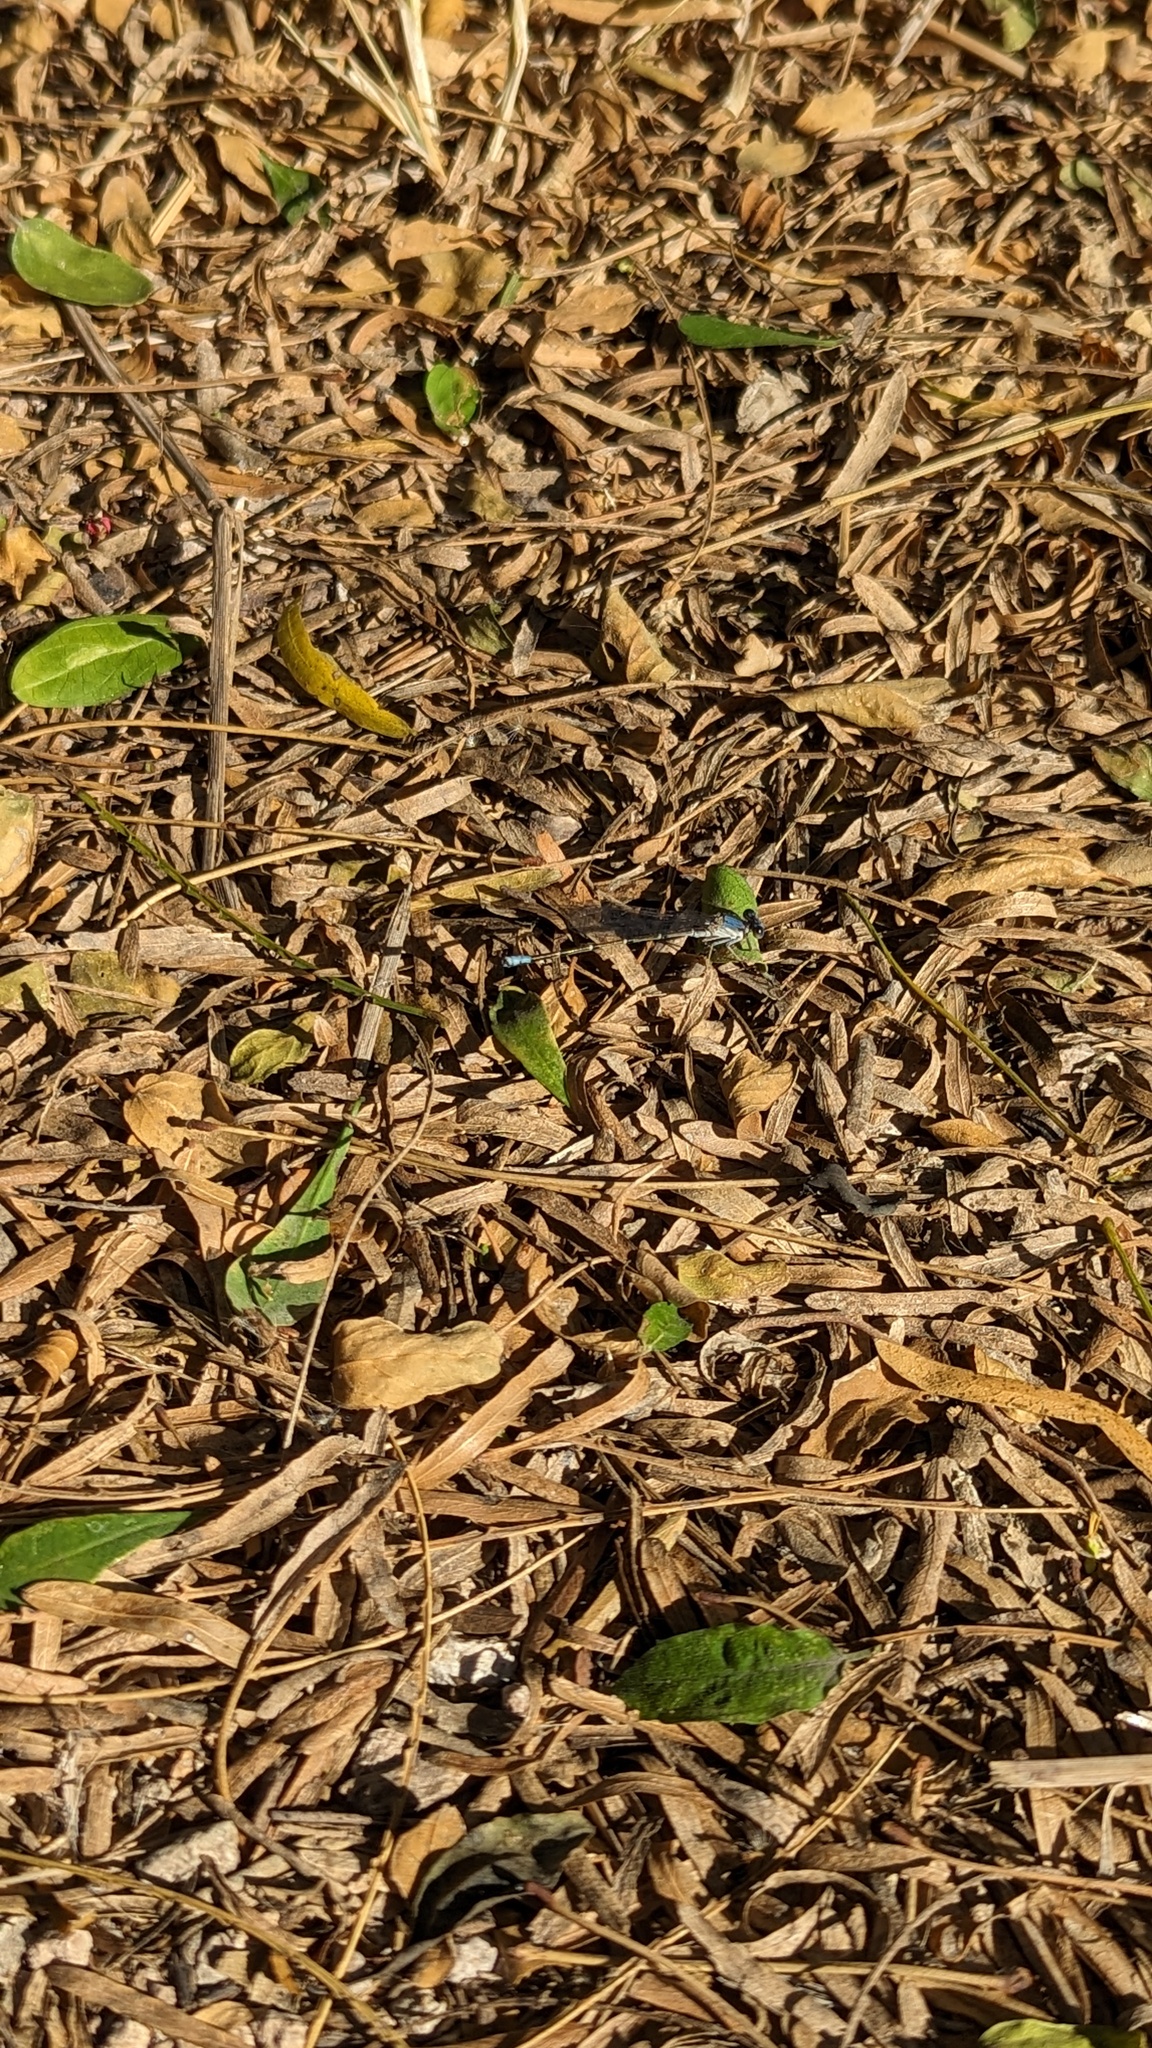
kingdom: Animalia
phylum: Arthropoda
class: Insecta
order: Odonata
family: Coenagrionidae
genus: Argia
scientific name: Argia apicalis
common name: Blue-fronted dancer
